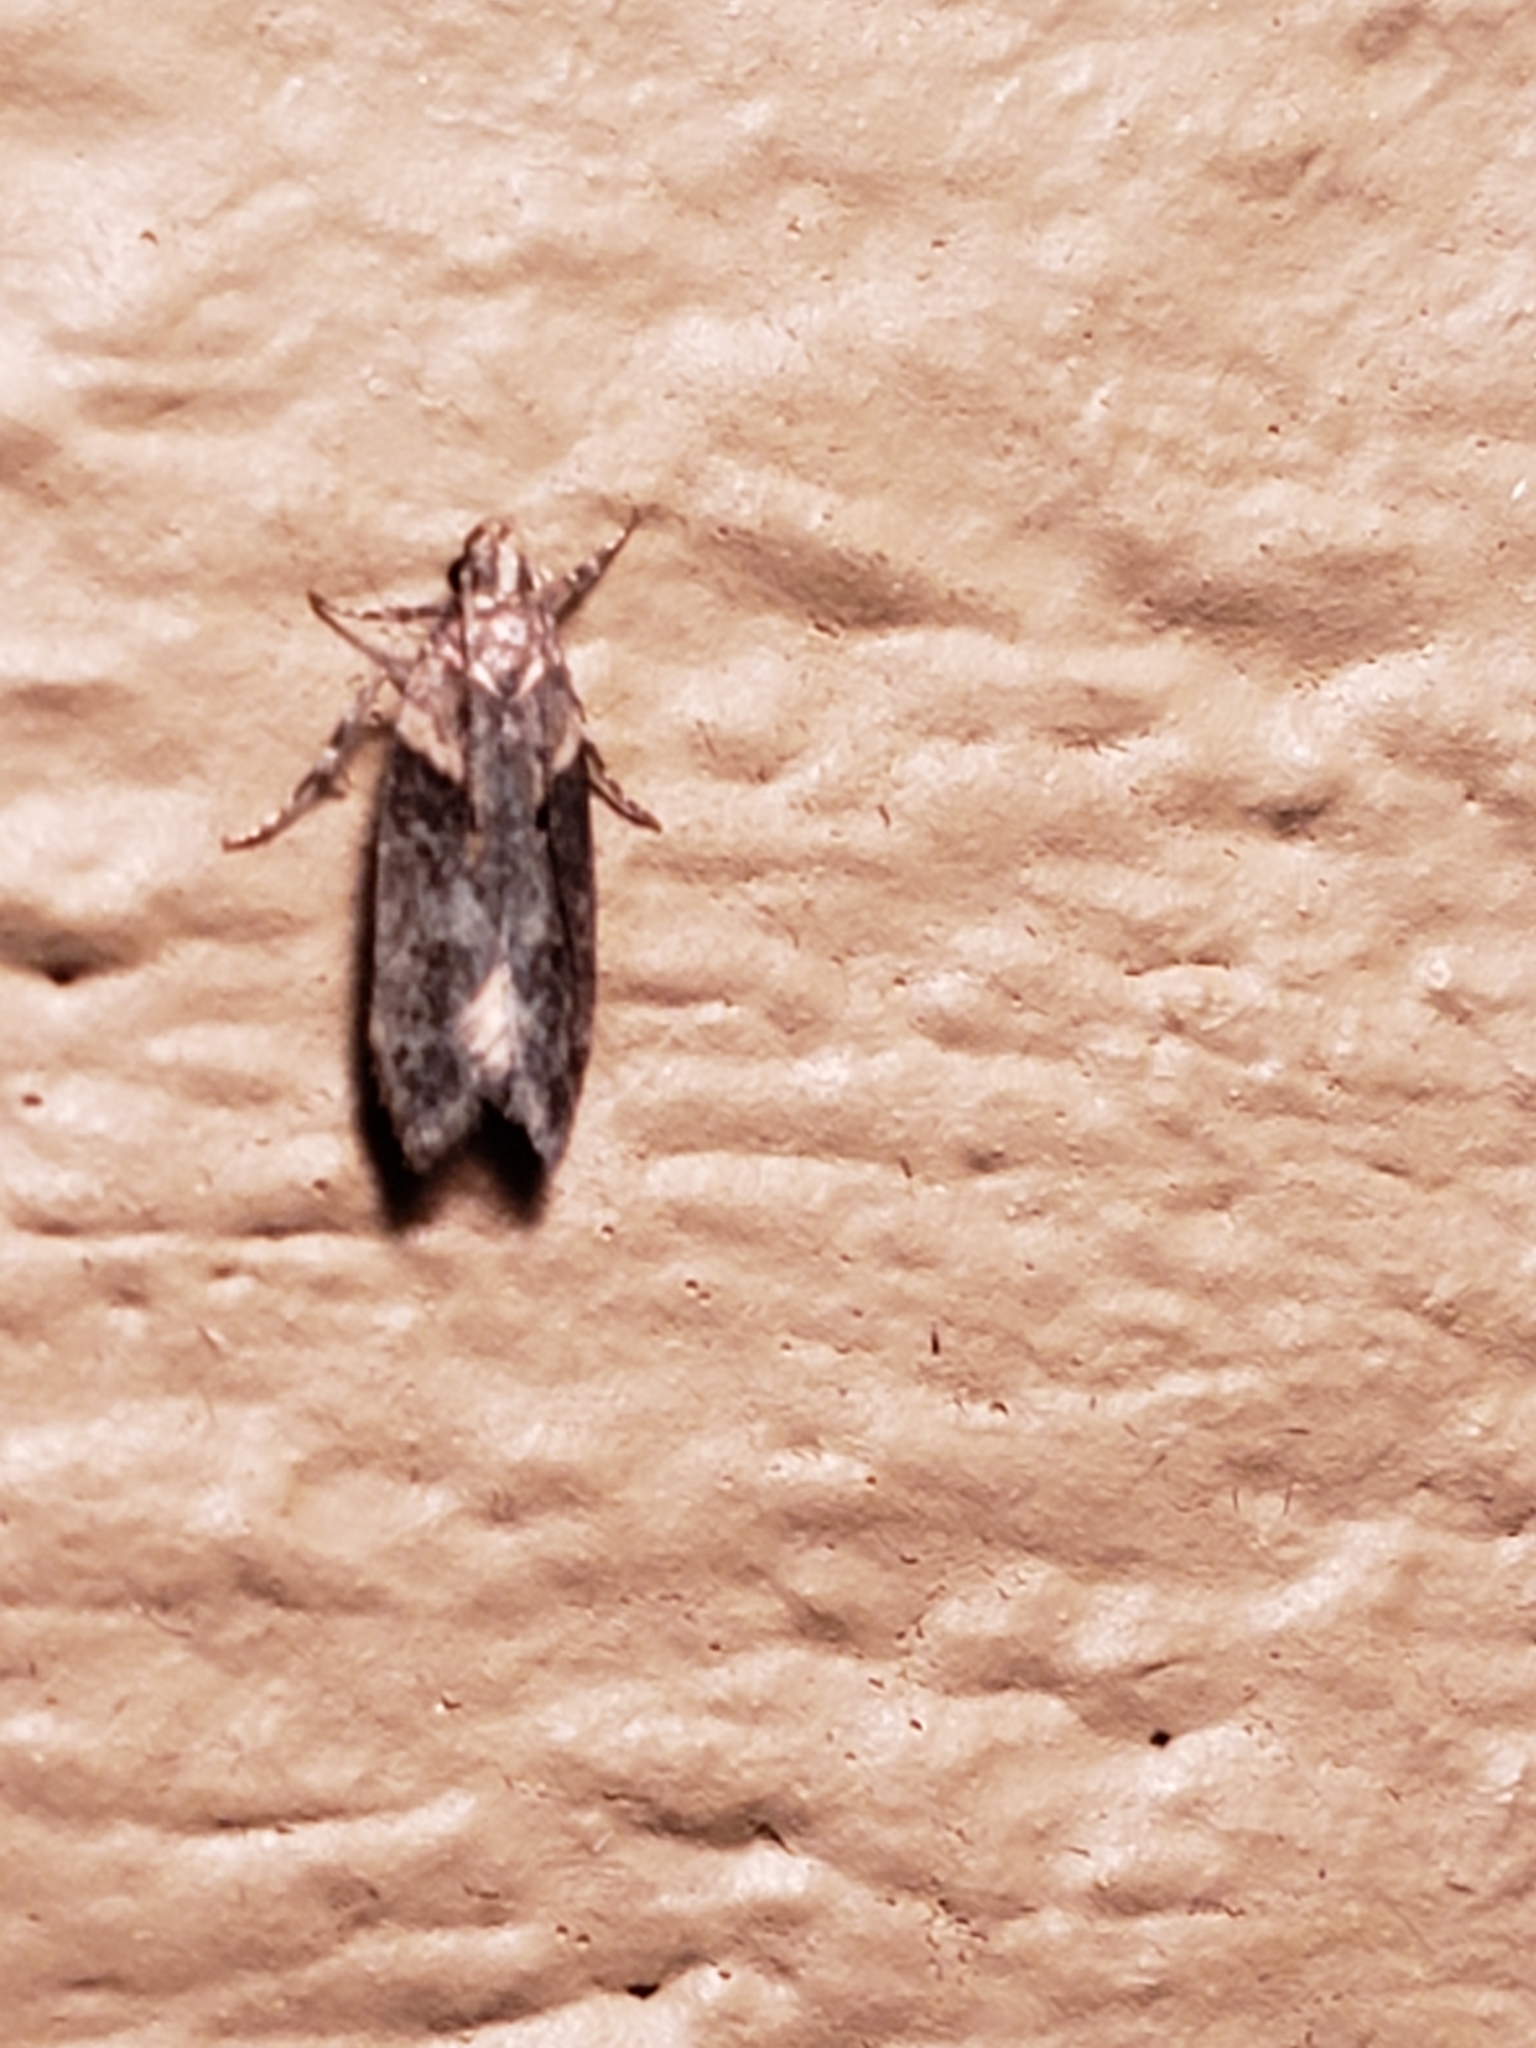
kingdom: Animalia
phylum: Arthropoda
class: Insecta
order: Lepidoptera
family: Gelechiidae
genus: Chionodes
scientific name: Chionodes mediofuscella
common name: Black-smudged chionodes moth
